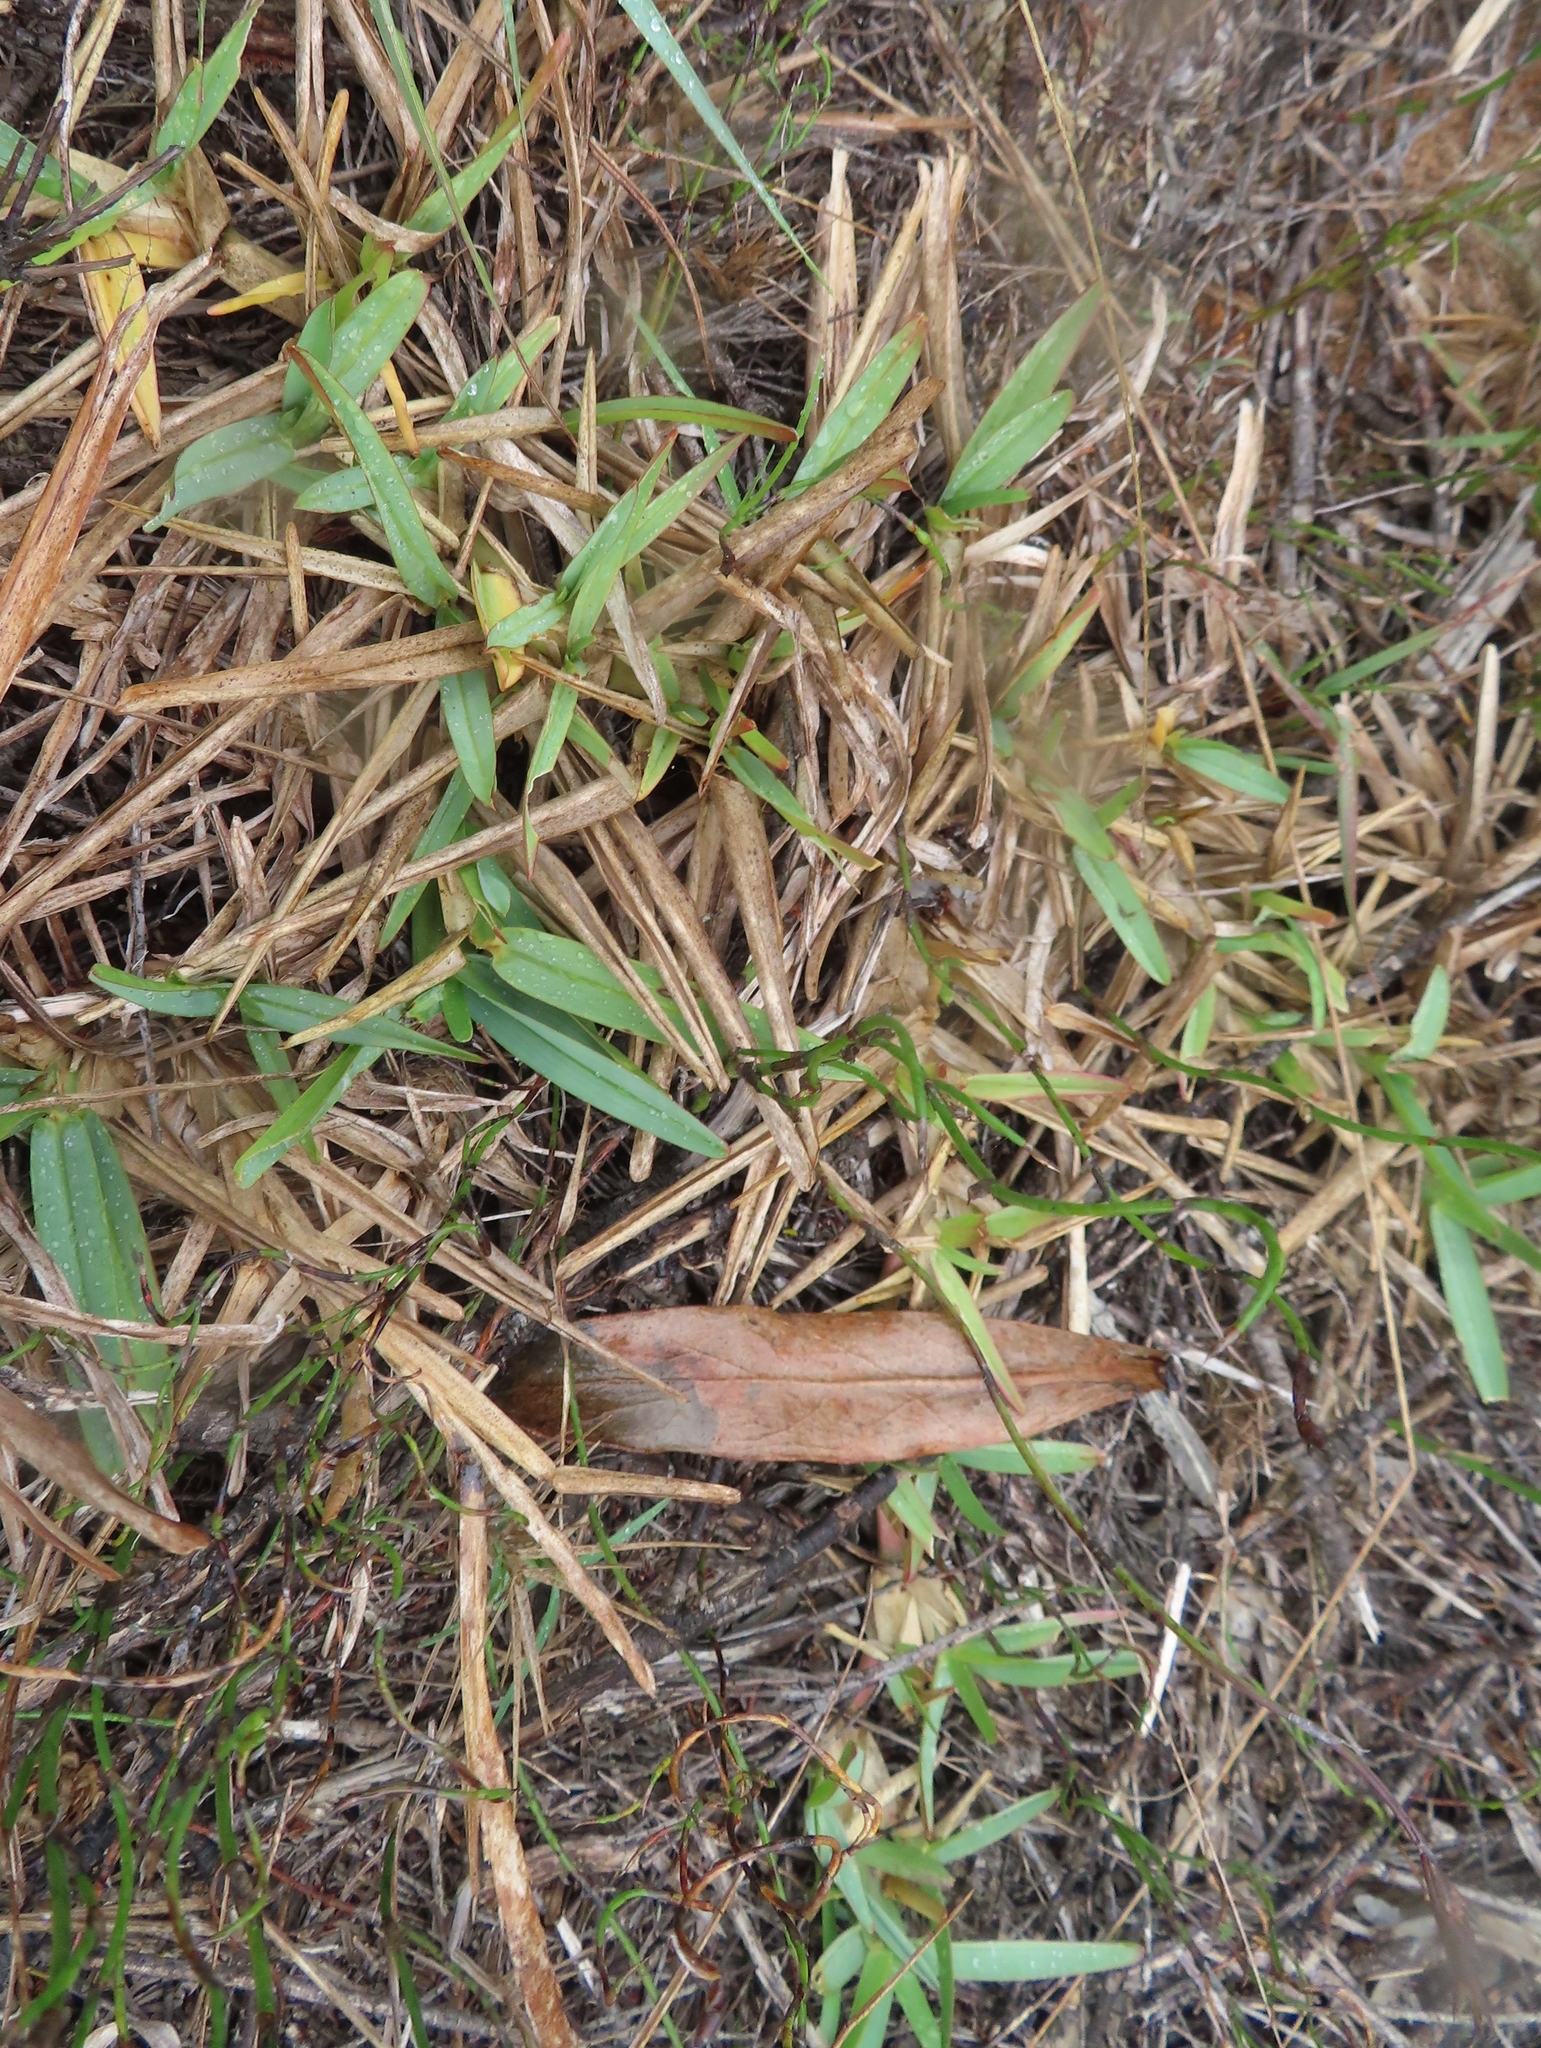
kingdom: Plantae
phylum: Tracheophyta
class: Liliopsida
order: Poales
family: Poaceae
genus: Stenotaphrum
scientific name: Stenotaphrum secundatum
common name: St. augustine grass
